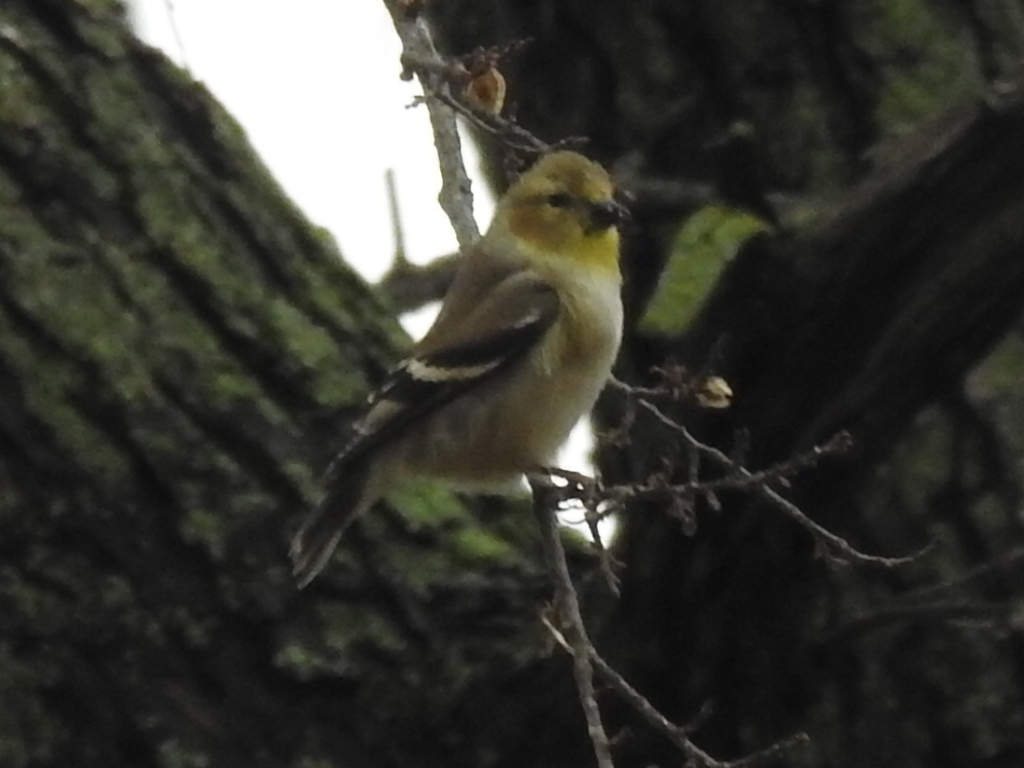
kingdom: Animalia
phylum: Chordata
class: Aves
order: Passeriformes
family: Fringillidae
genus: Spinus
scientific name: Spinus tristis
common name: American goldfinch
